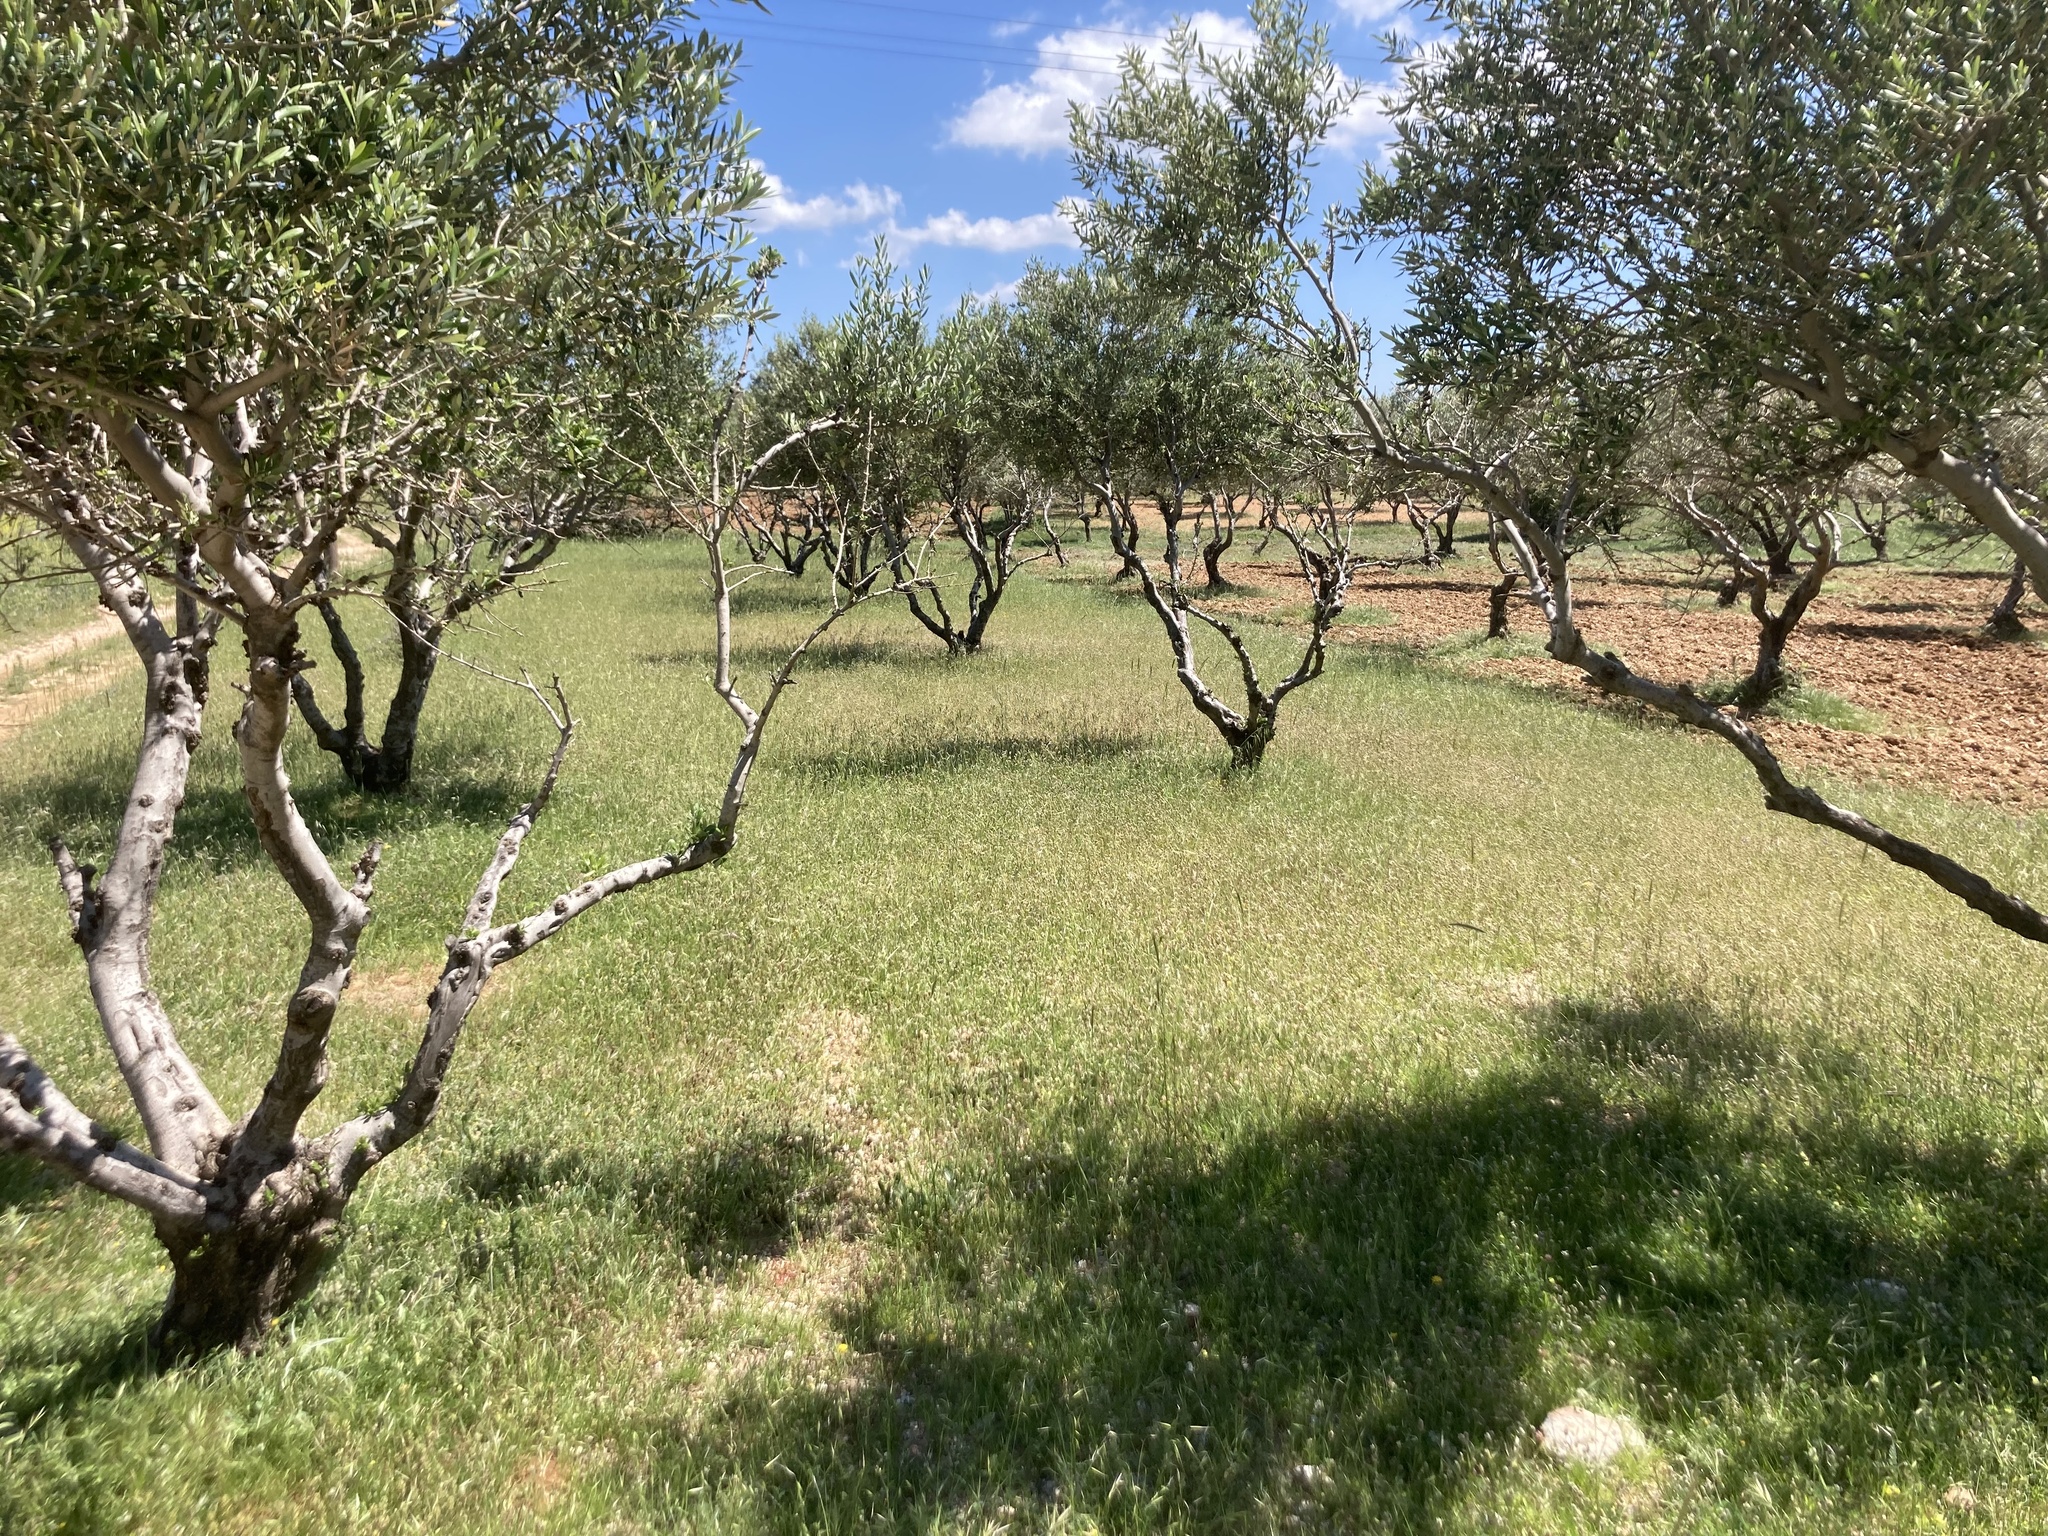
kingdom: Plantae
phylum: Tracheophyta
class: Magnoliopsida
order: Lamiales
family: Oleaceae
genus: Olea
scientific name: Olea europaea
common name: Olive
